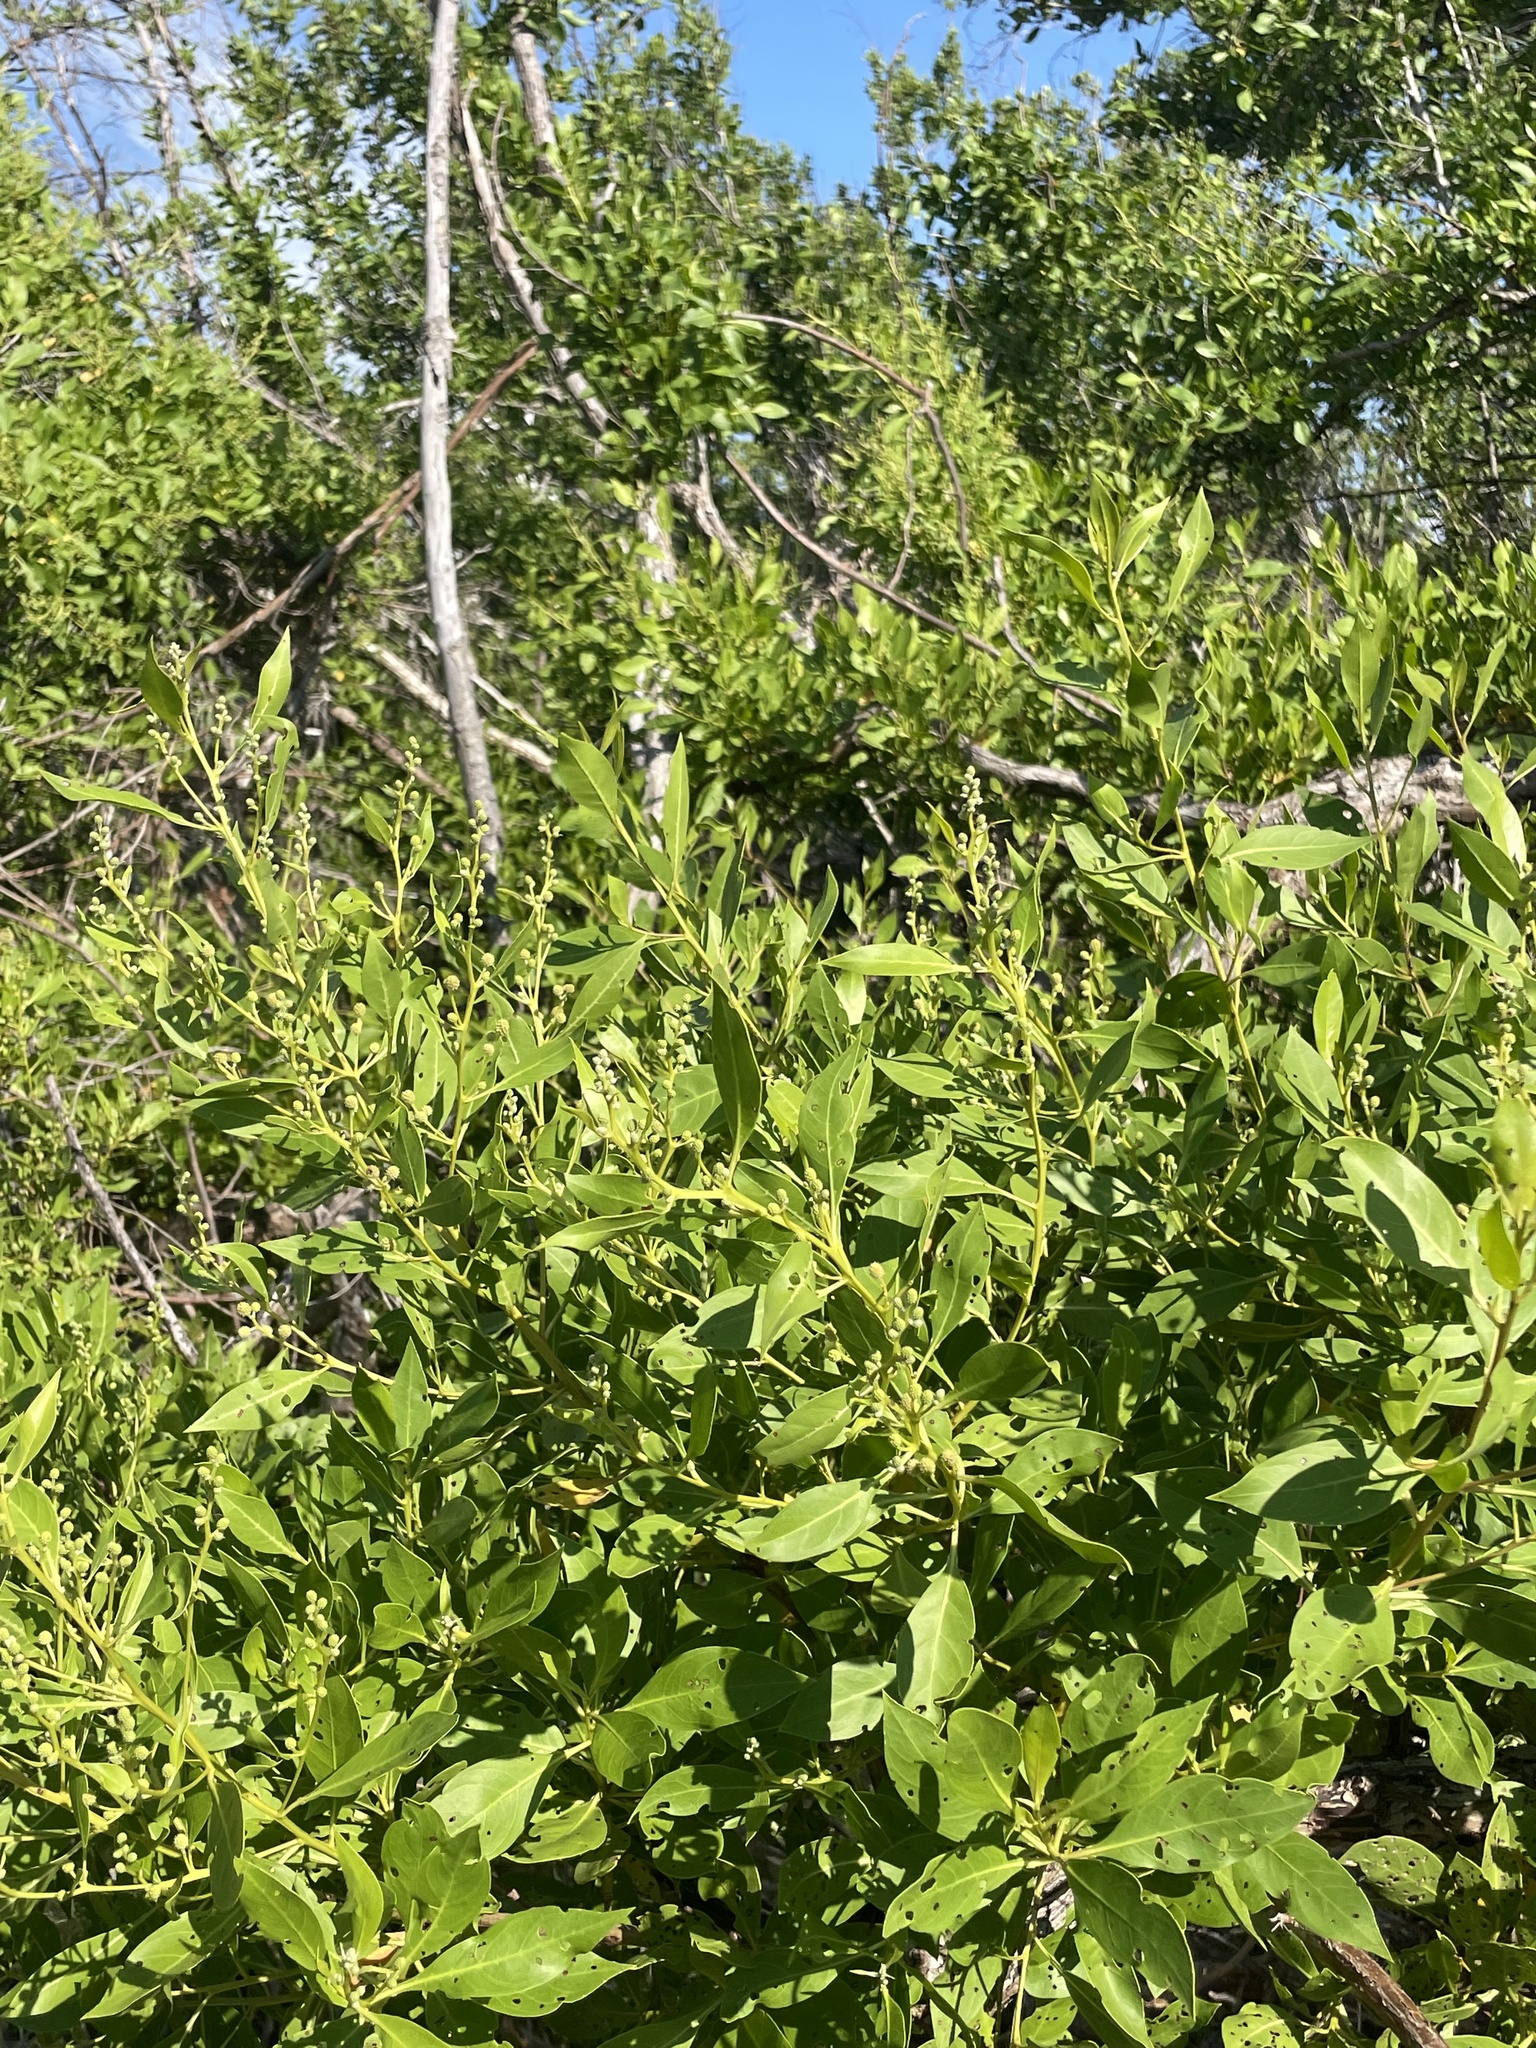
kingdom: Plantae
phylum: Tracheophyta
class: Magnoliopsida
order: Myrtales
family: Combretaceae
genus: Conocarpus
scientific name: Conocarpus erectus
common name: Button mangrove
